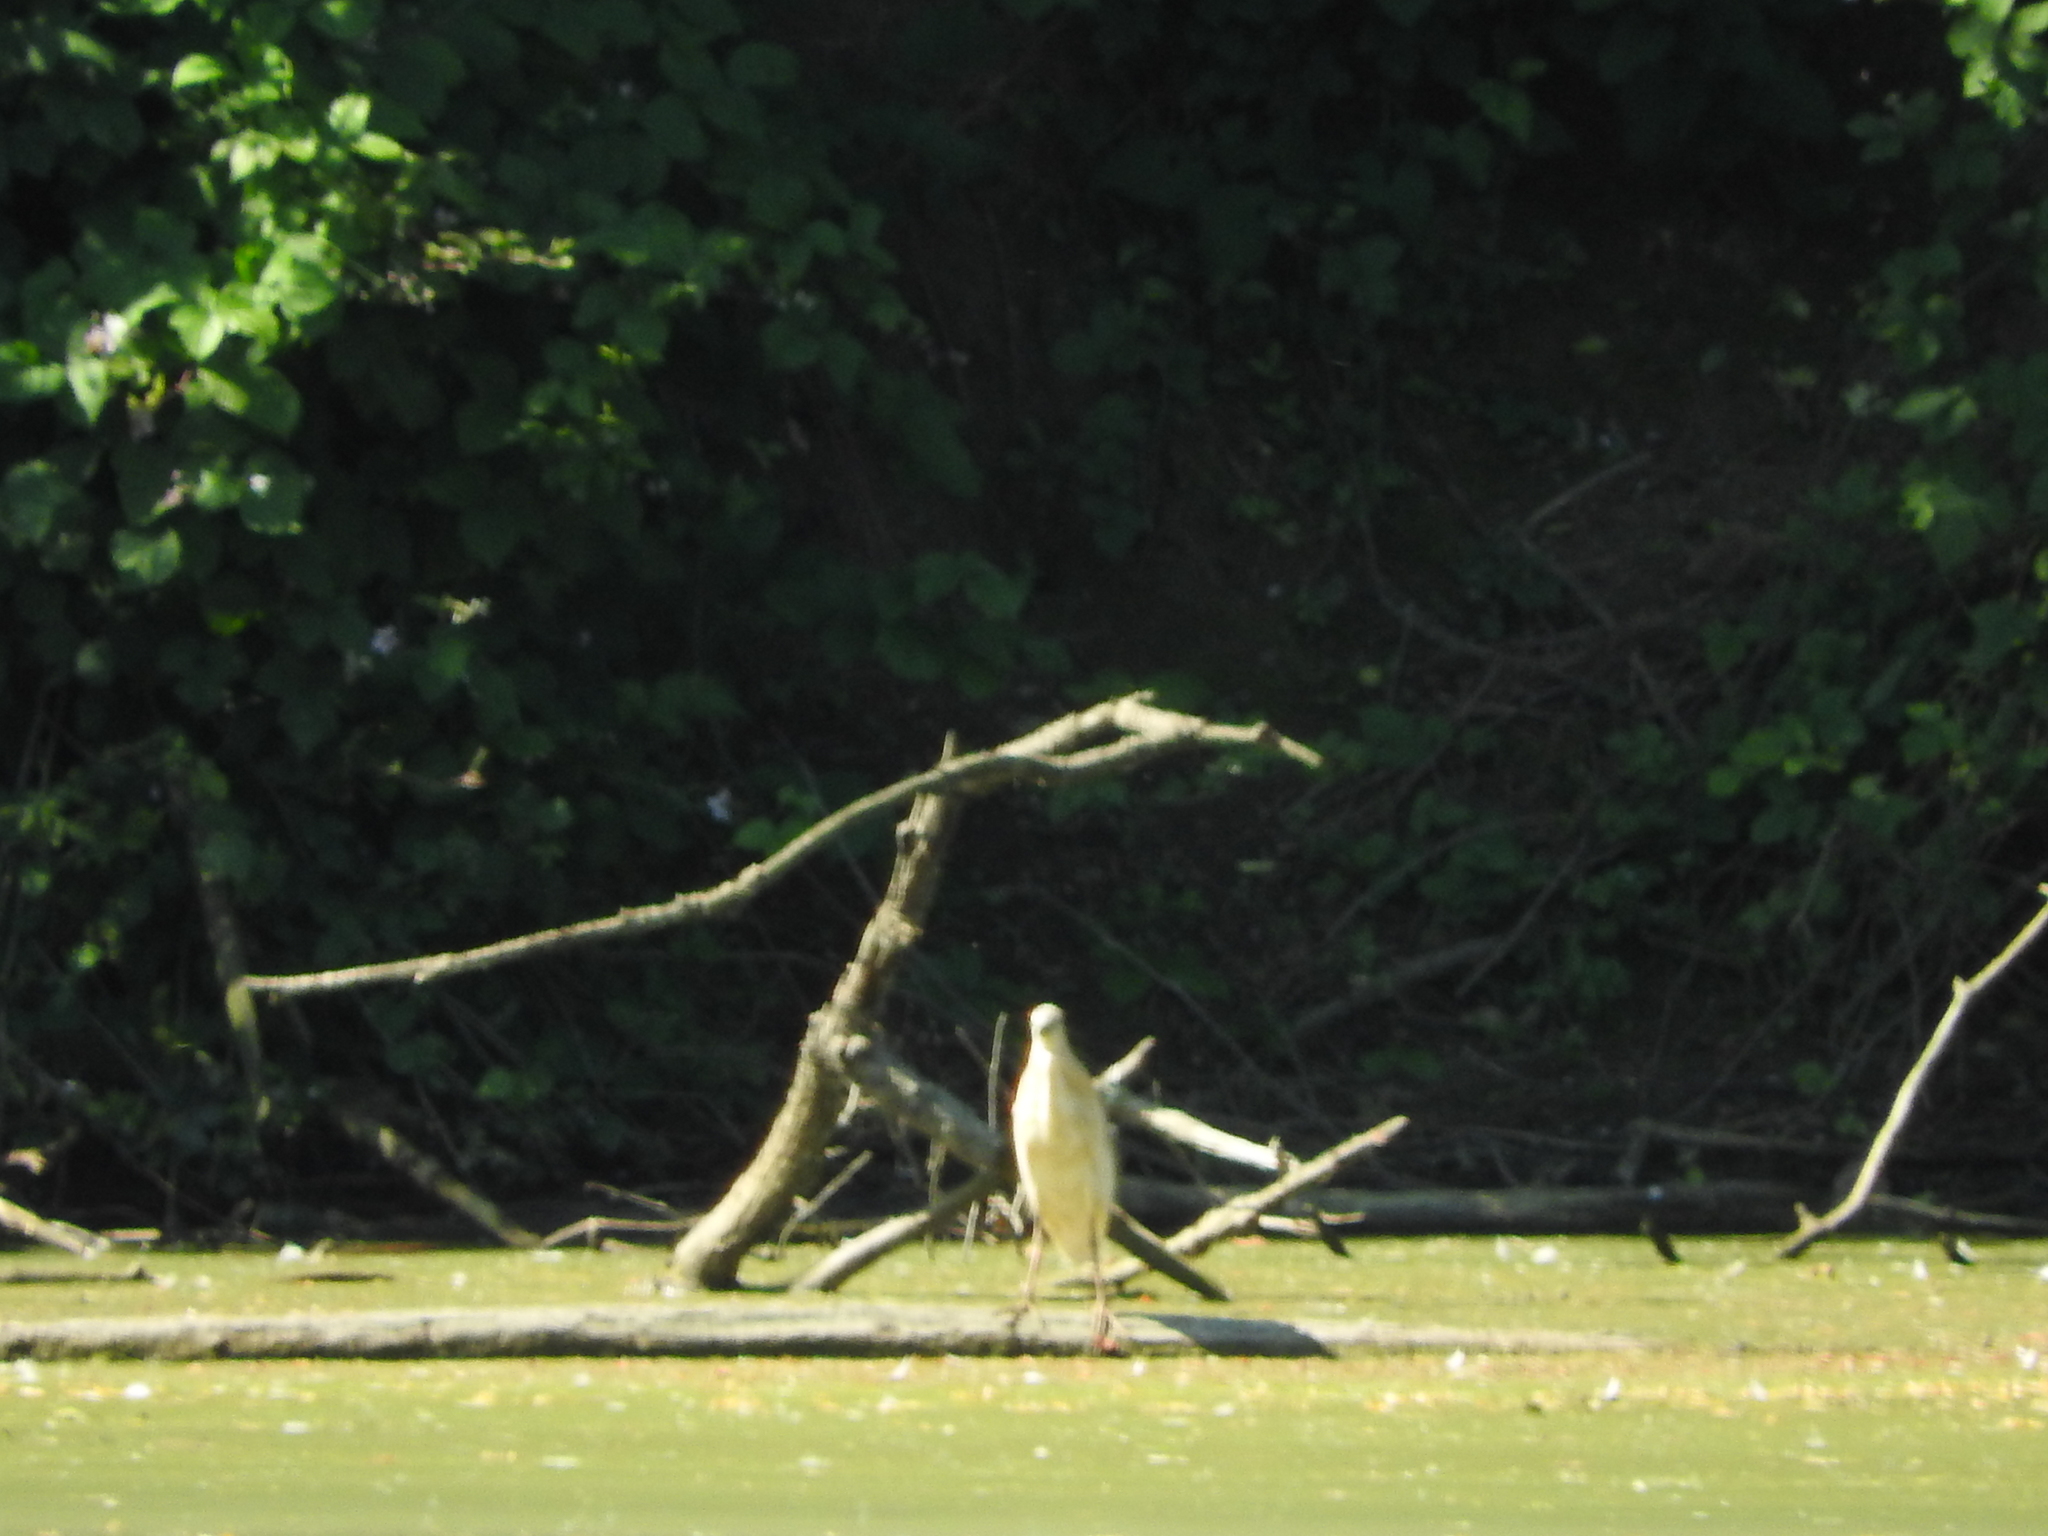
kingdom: Animalia
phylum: Chordata
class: Aves
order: Pelecaniformes
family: Ardeidae
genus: Ardeola
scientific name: Ardeola ralloides
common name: Squacco heron
